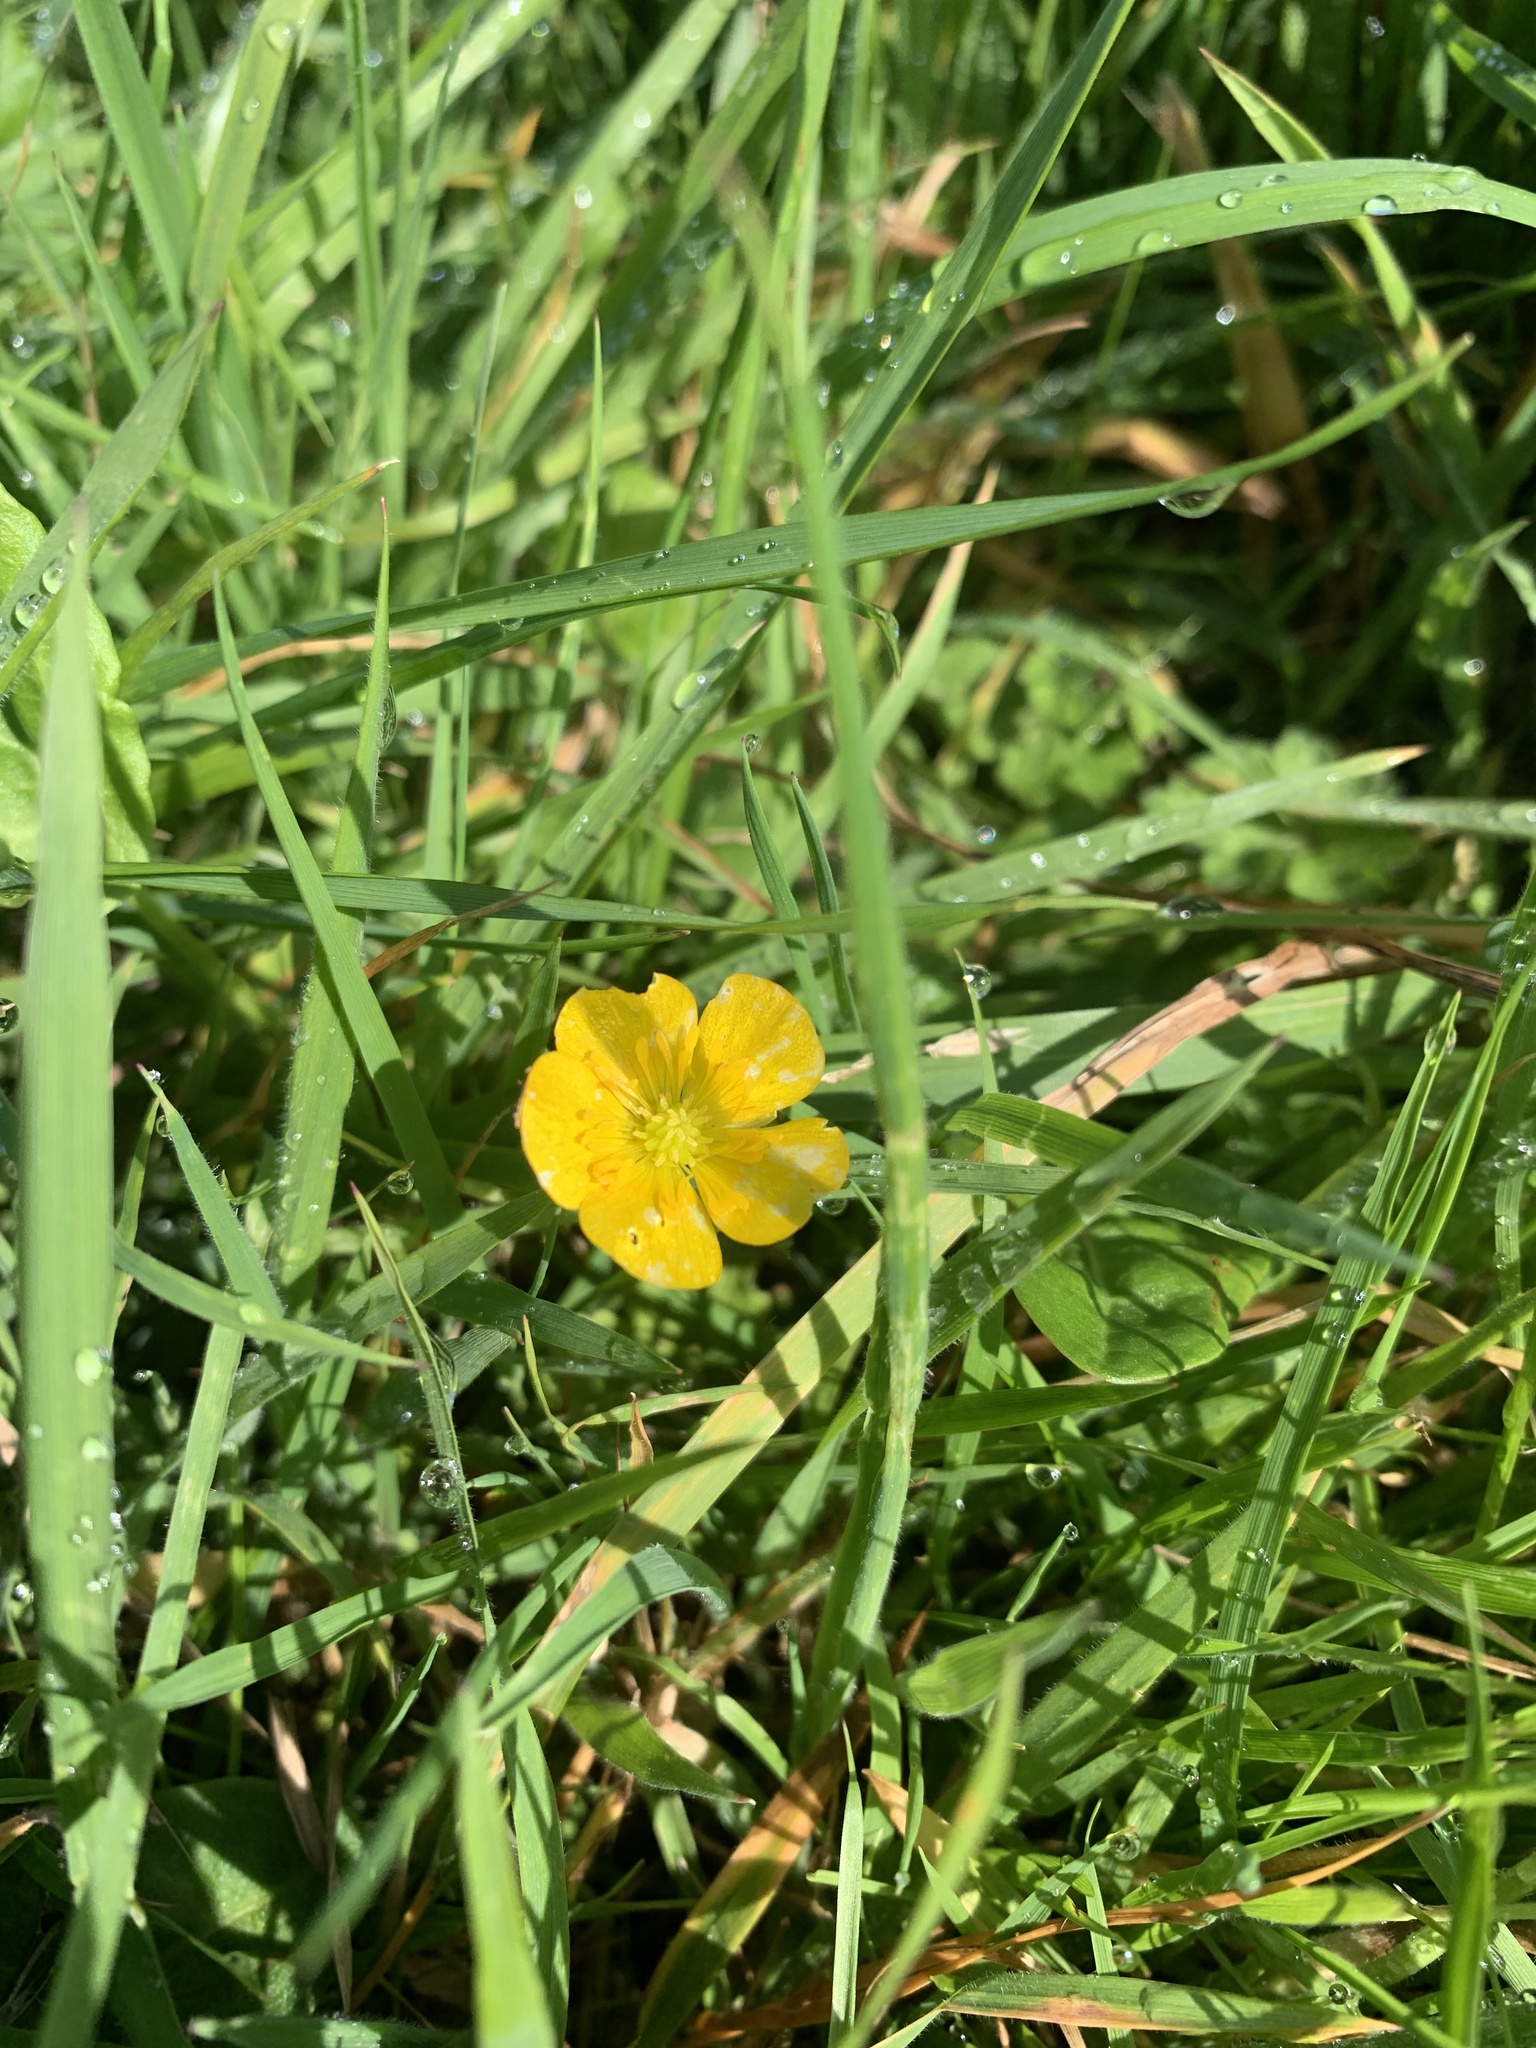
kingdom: Plantae
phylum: Tracheophyta
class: Magnoliopsida
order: Ranunculales
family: Ranunculaceae
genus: Ranunculus
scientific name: Ranunculus repens
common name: Creeping buttercup
